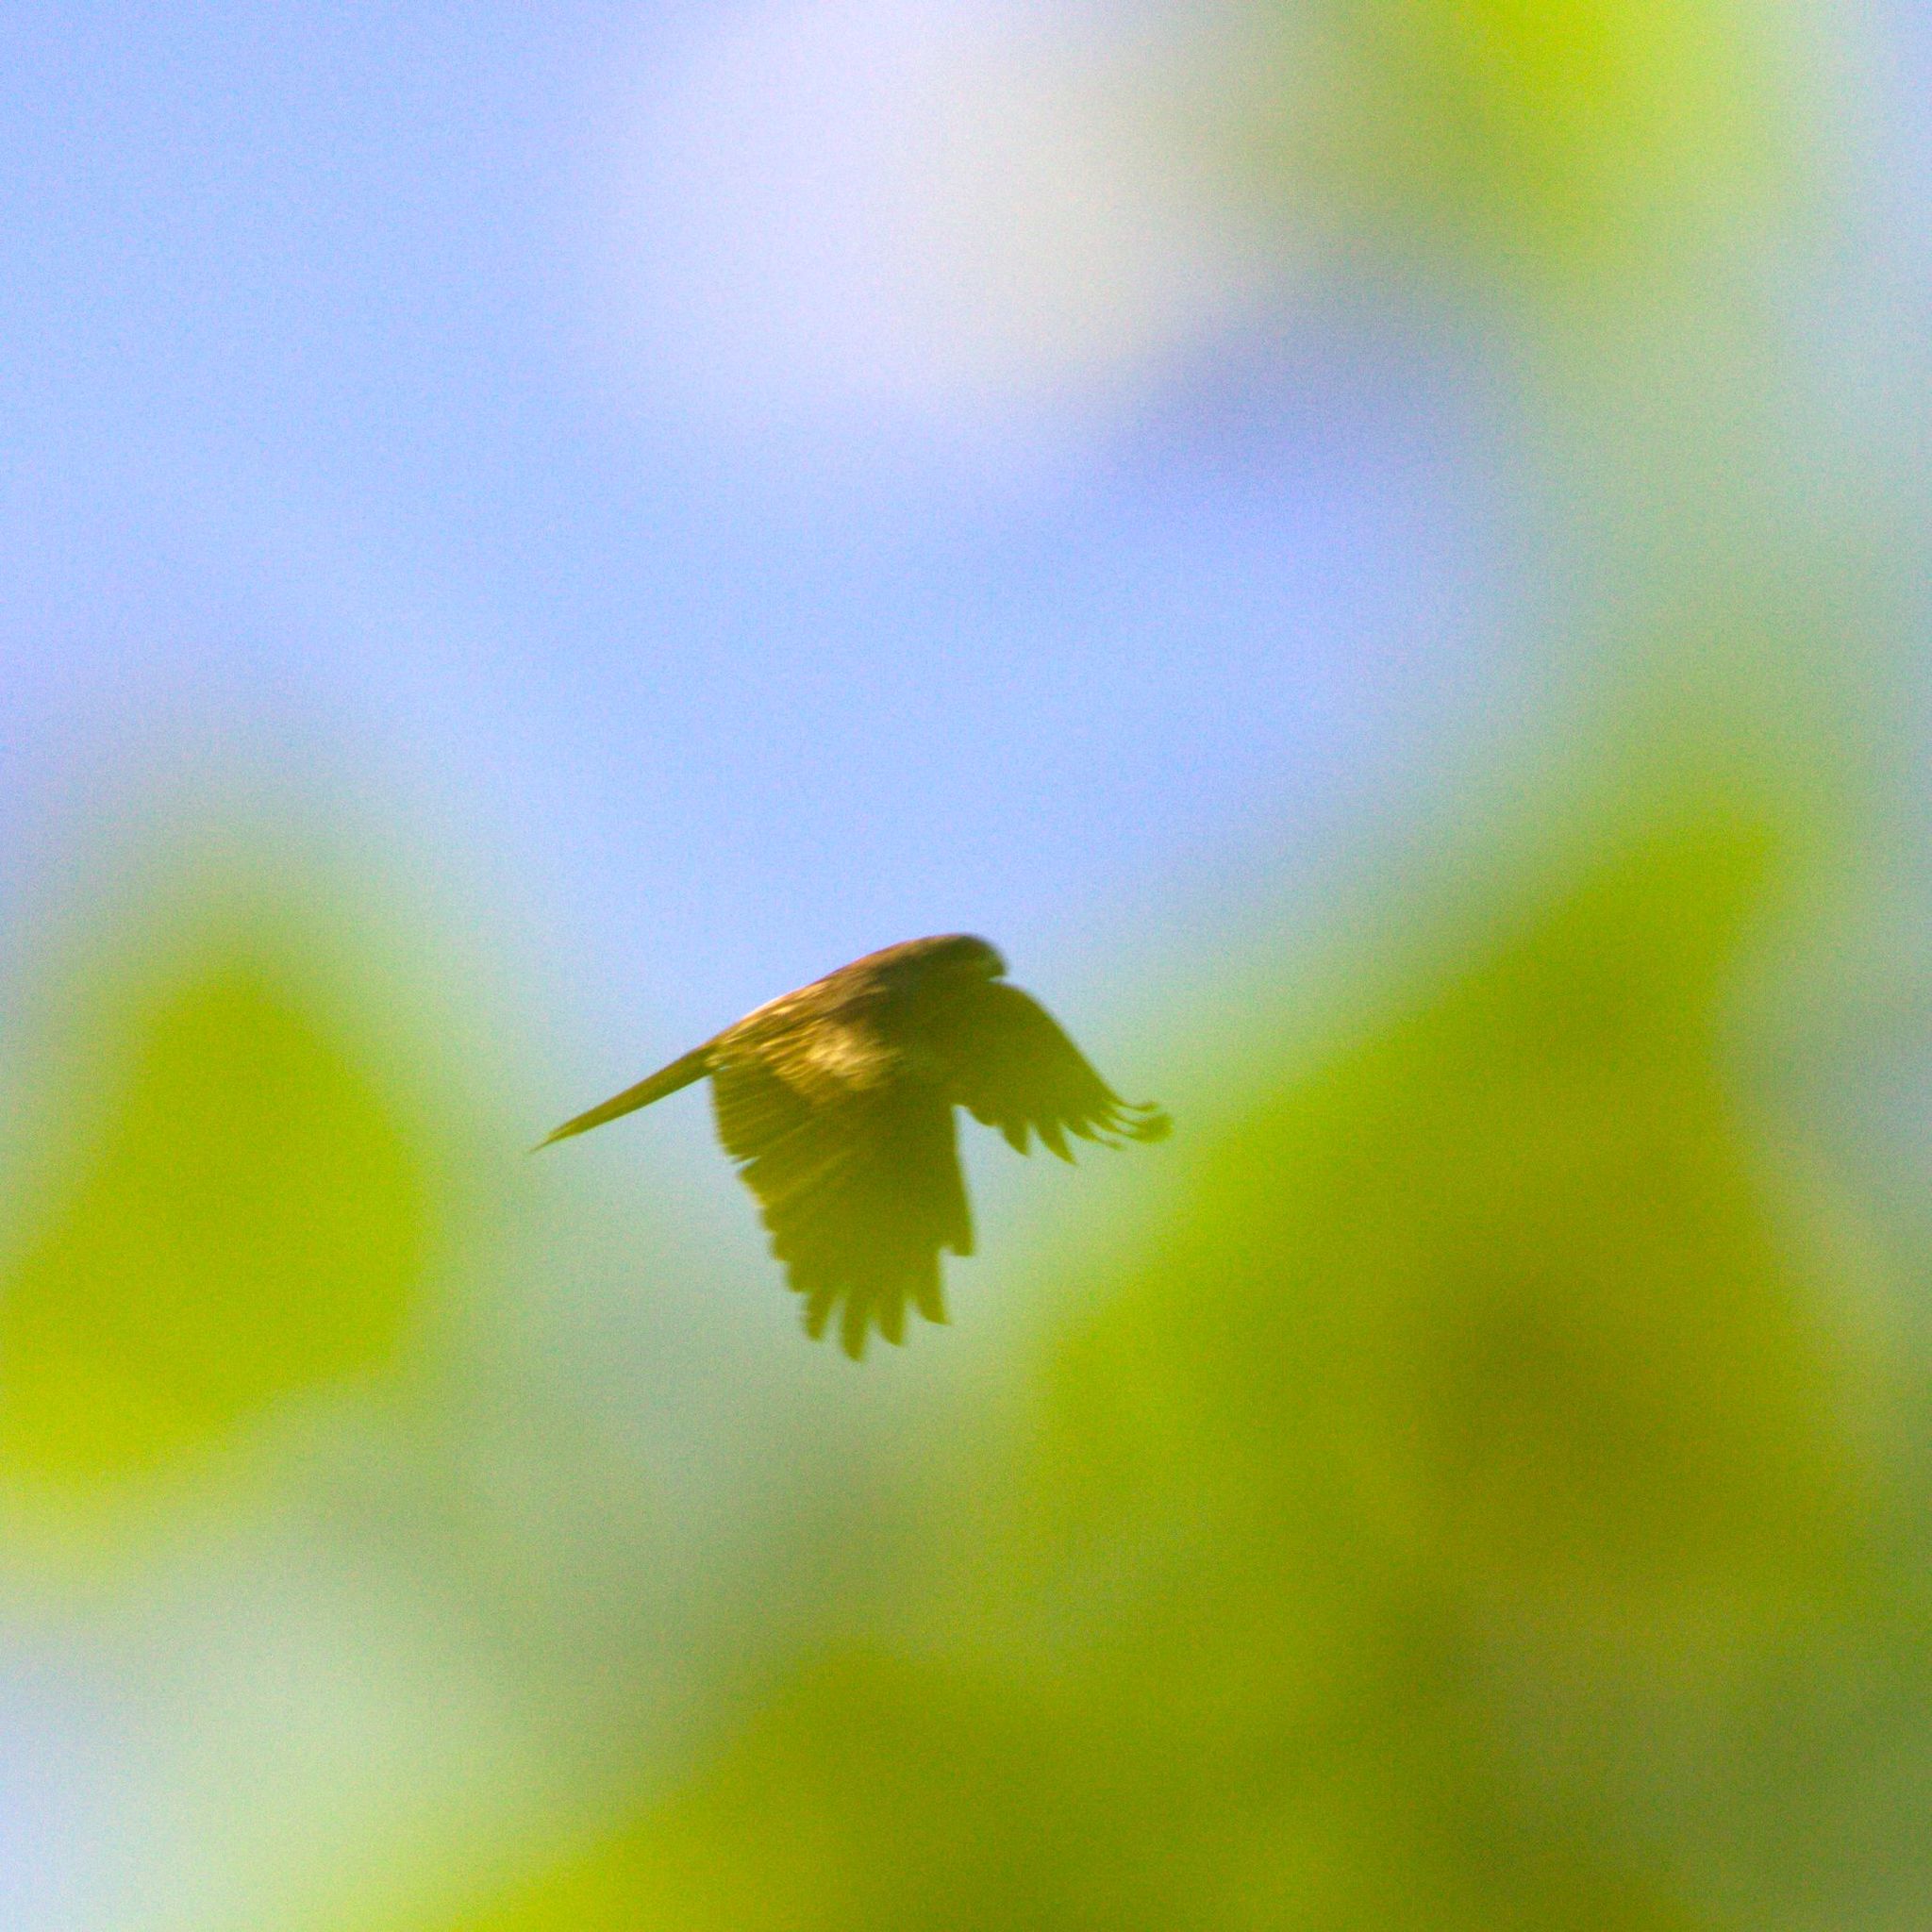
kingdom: Animalia
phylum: Chordata
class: Aves
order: Accipitriformes
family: Accipitridae
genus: Milvus
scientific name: Milvus migrans
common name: Black kite
